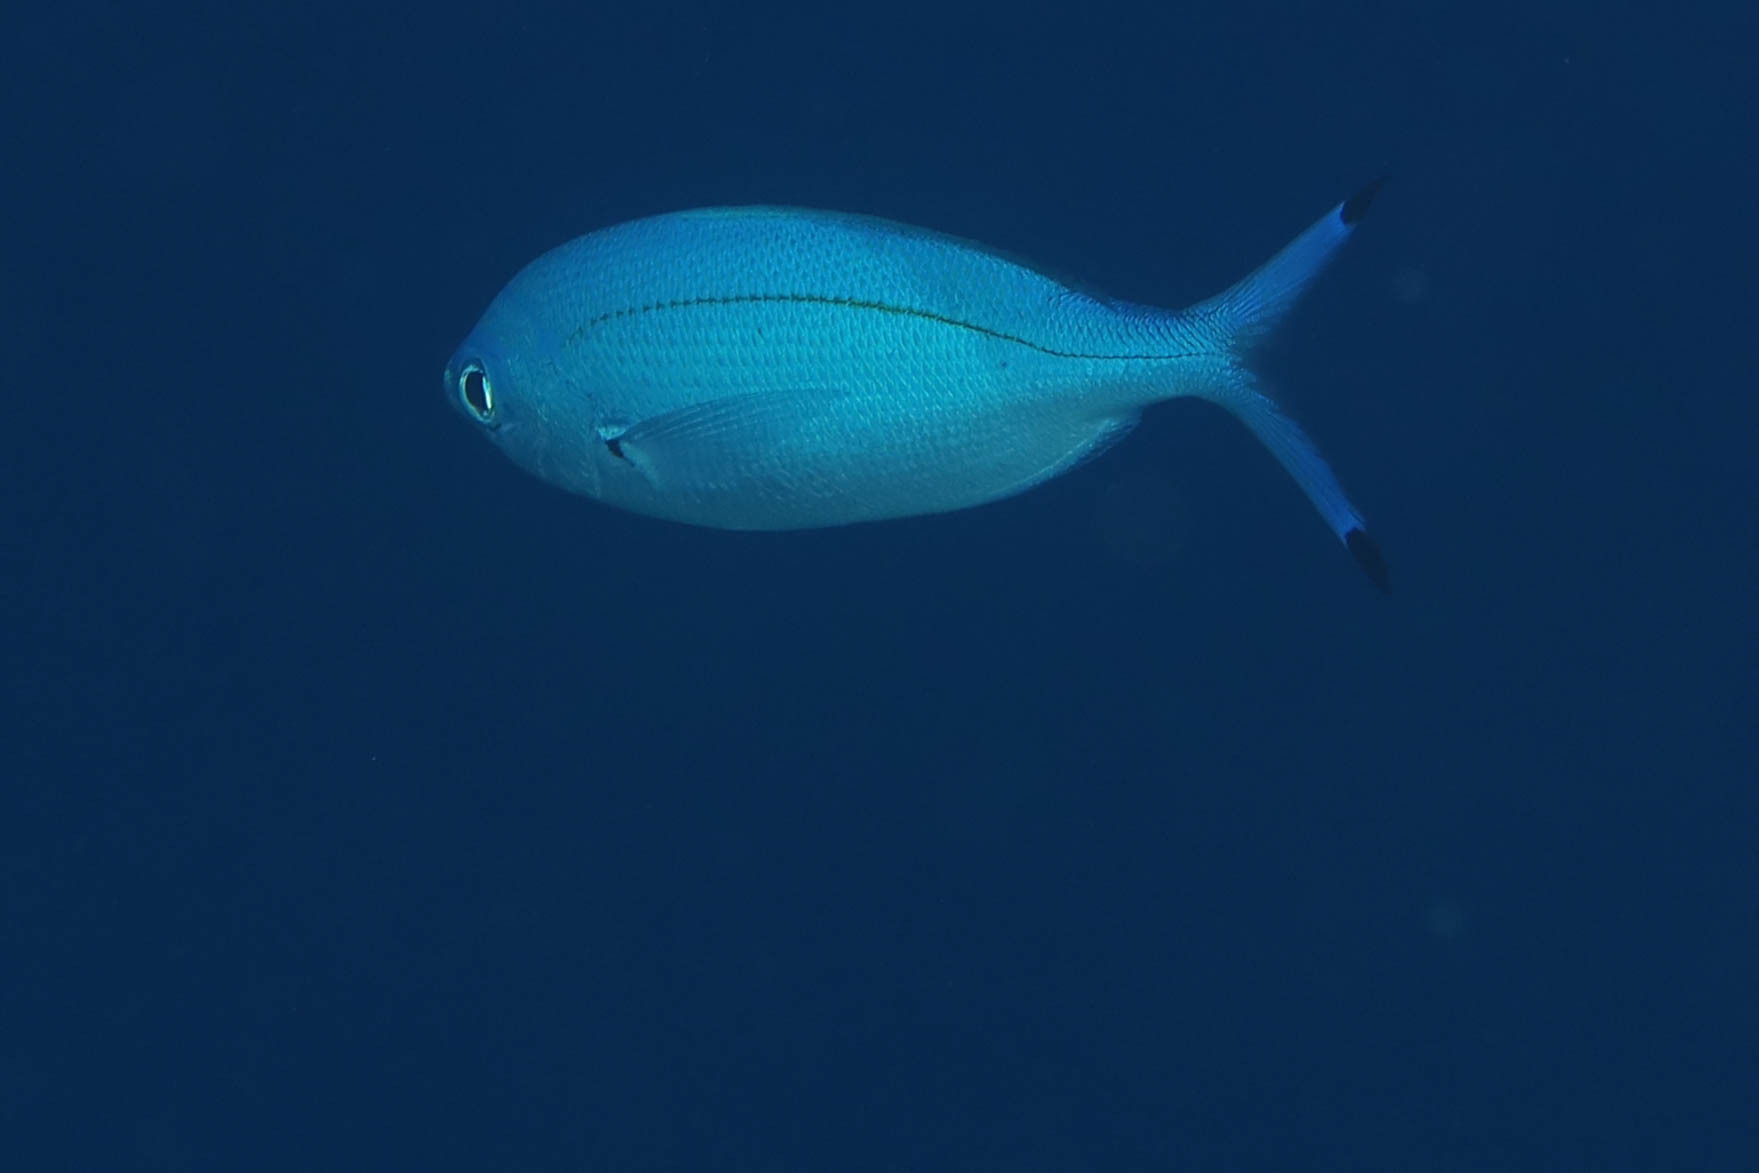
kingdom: Animalia
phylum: Chordata
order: Perciformes
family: Caesionidae
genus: Caesio
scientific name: Caesio lunaris
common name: Blue fusilier
